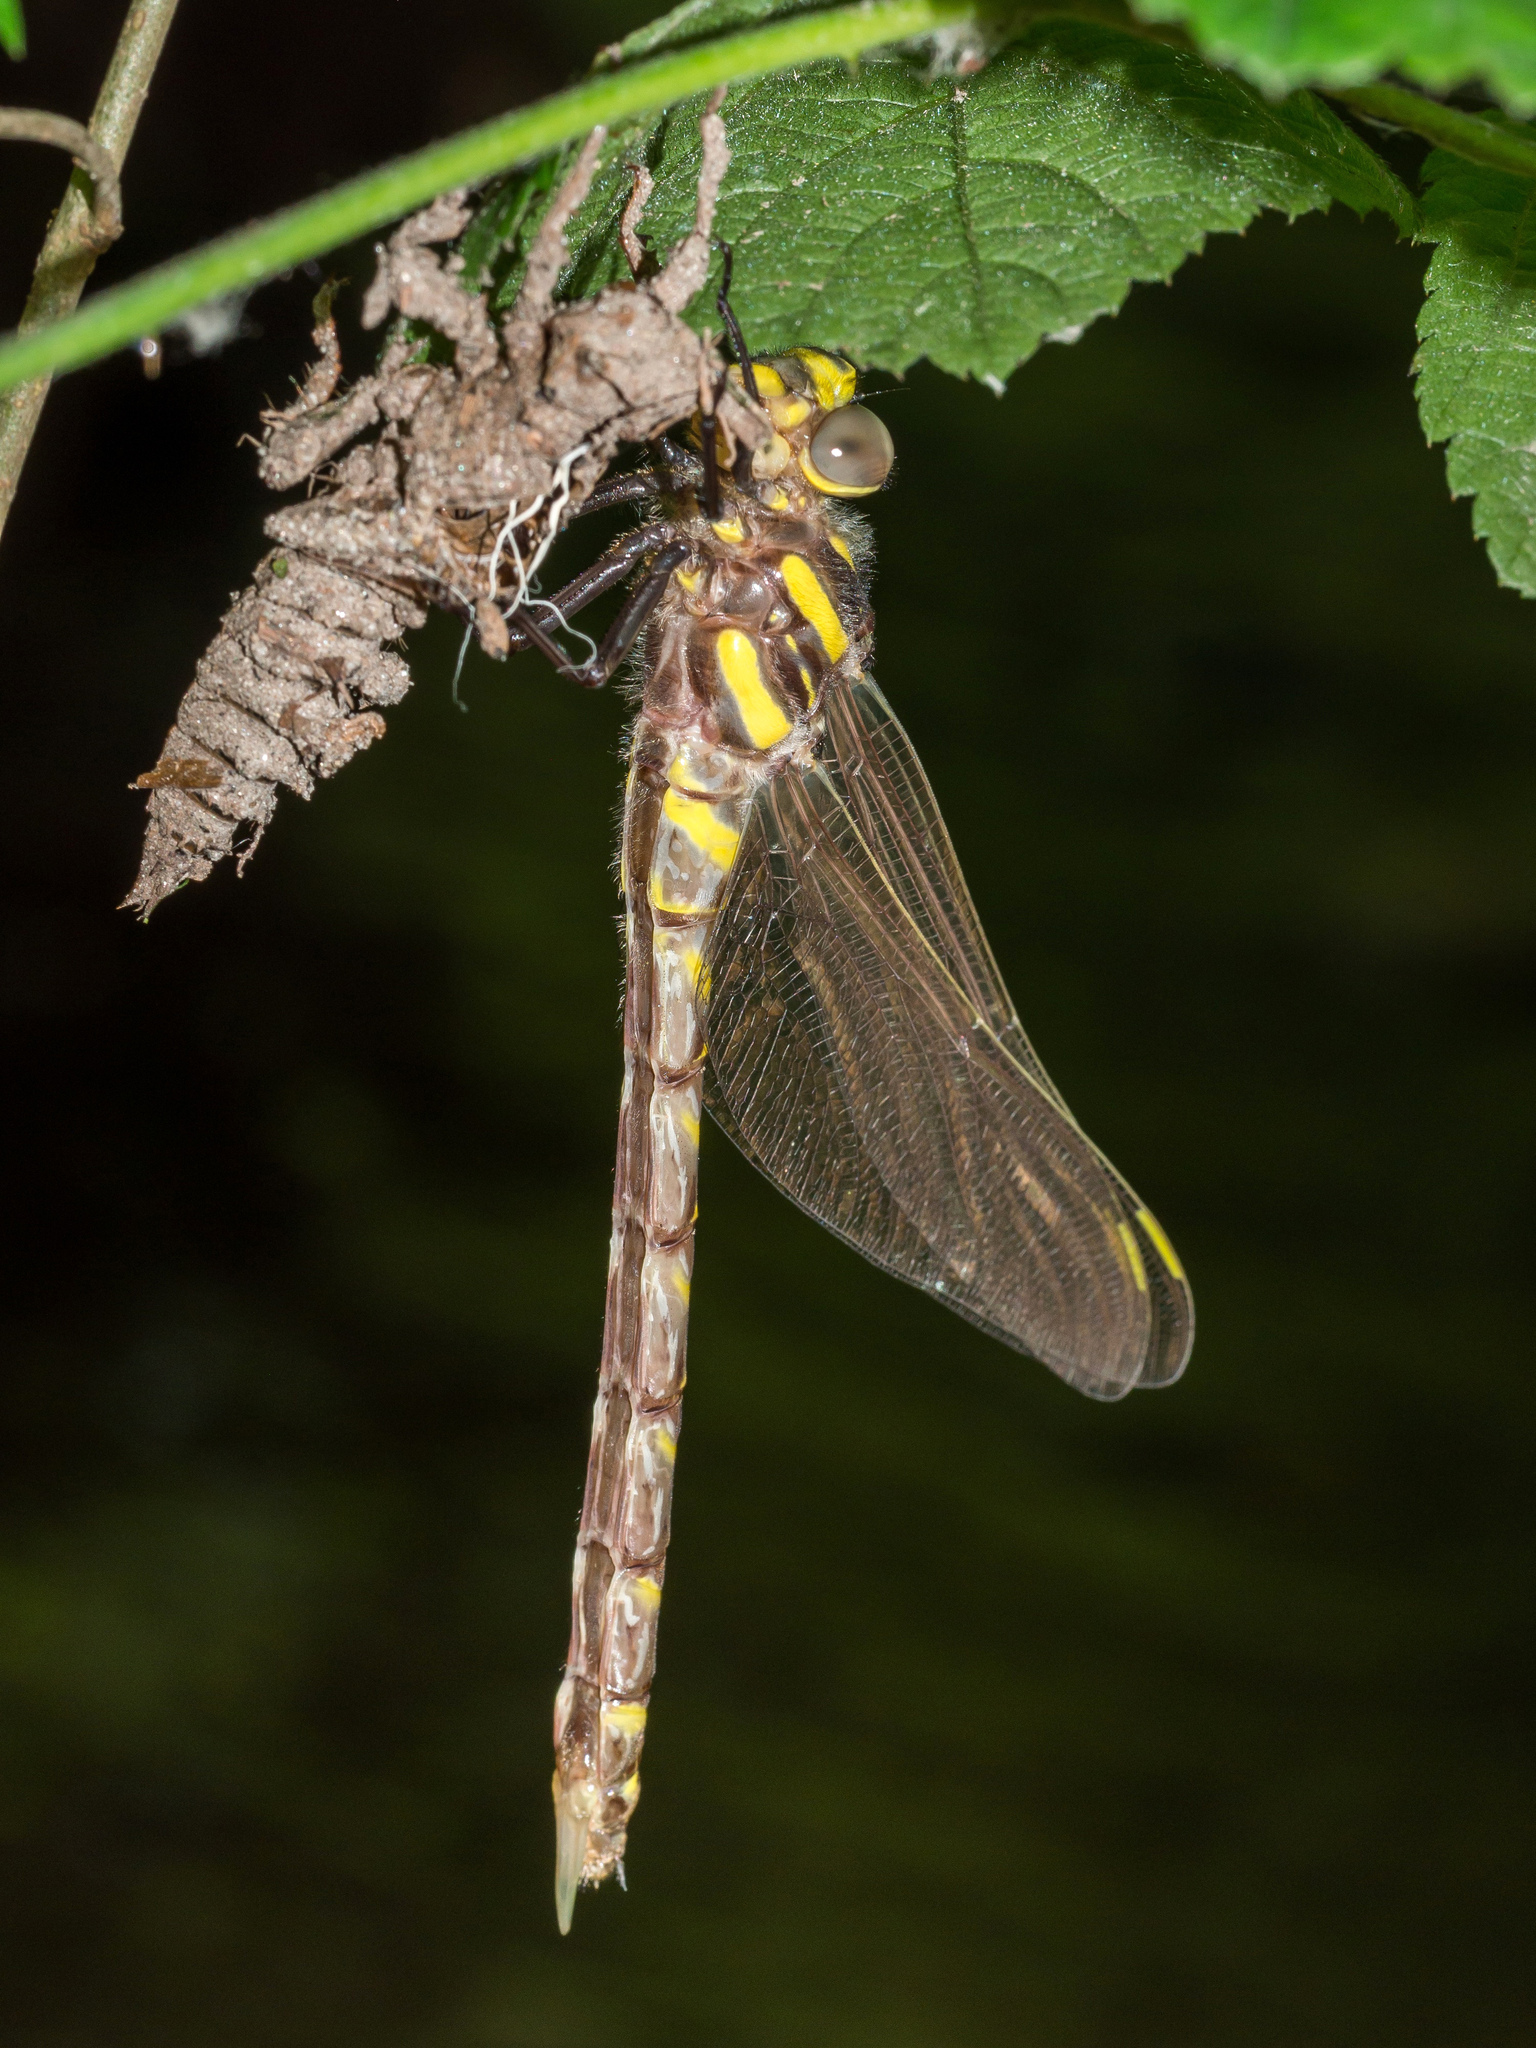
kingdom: Animalia
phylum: Arthropoda
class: Insecta
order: Odonata
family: Cordulegastridae
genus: Cordulegaster
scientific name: Cordulegaster boltonii
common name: Golden-ringed dragonfly
